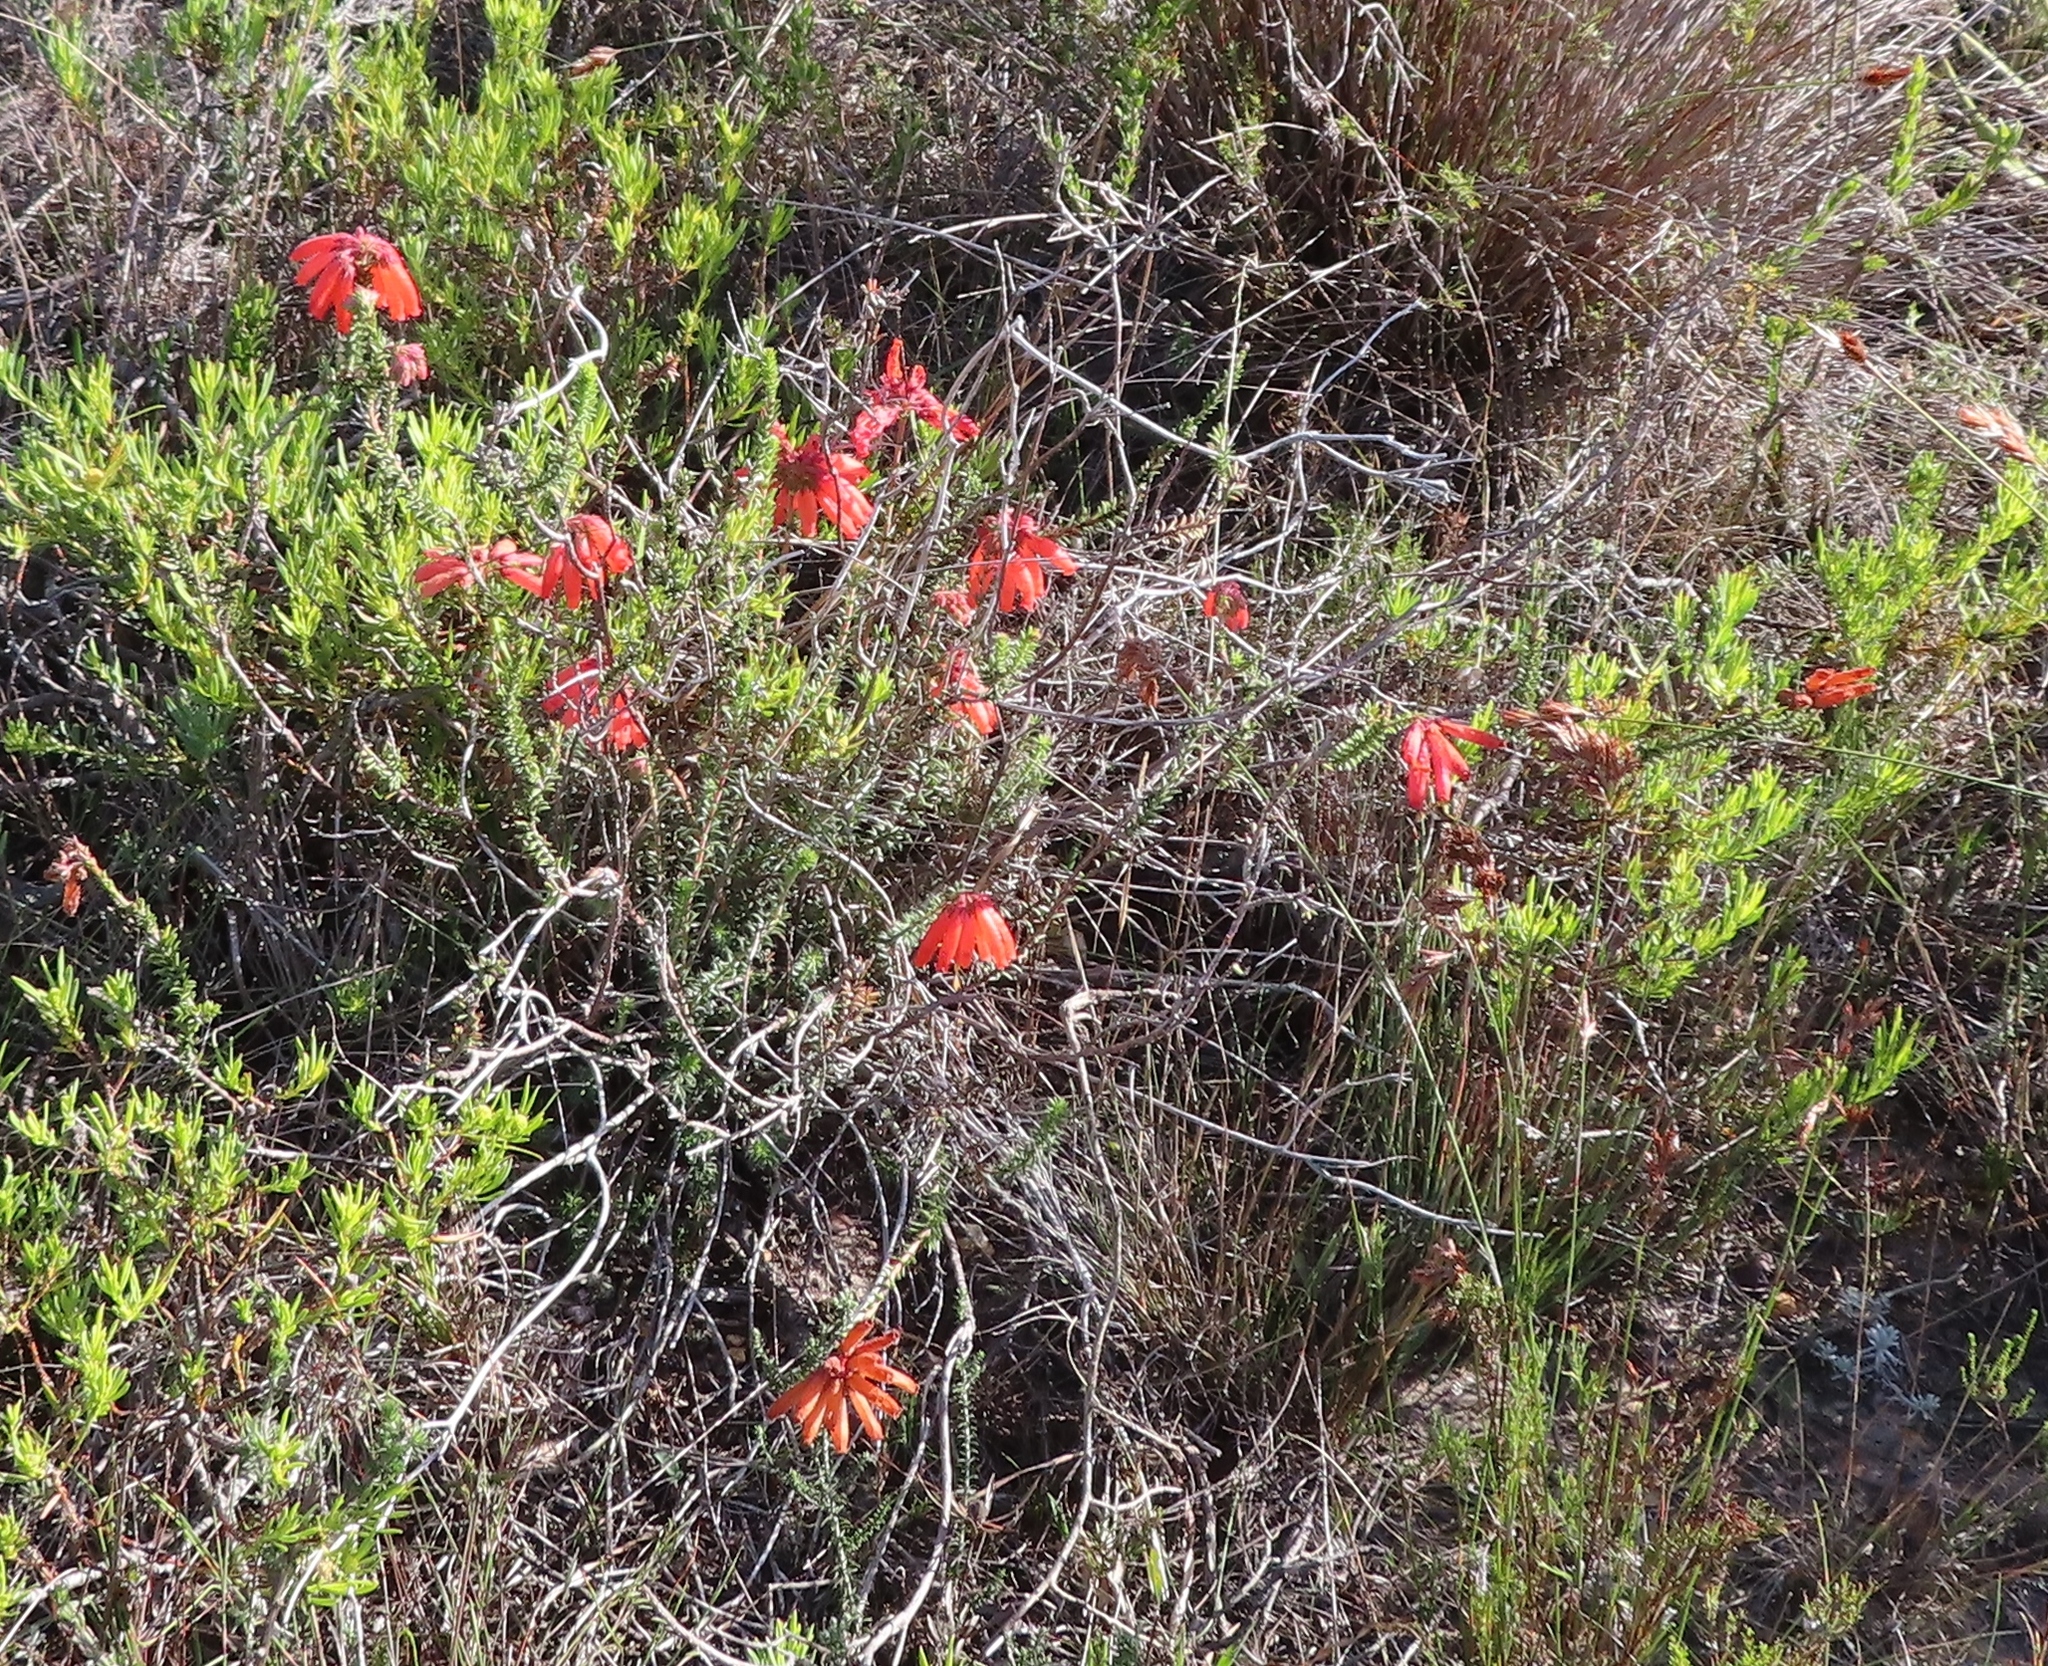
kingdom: Plantae
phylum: Tracheophyta
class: Magnoliopsida
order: Ericales
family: Ericaceae
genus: Erica
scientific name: Erica cerinthoides
